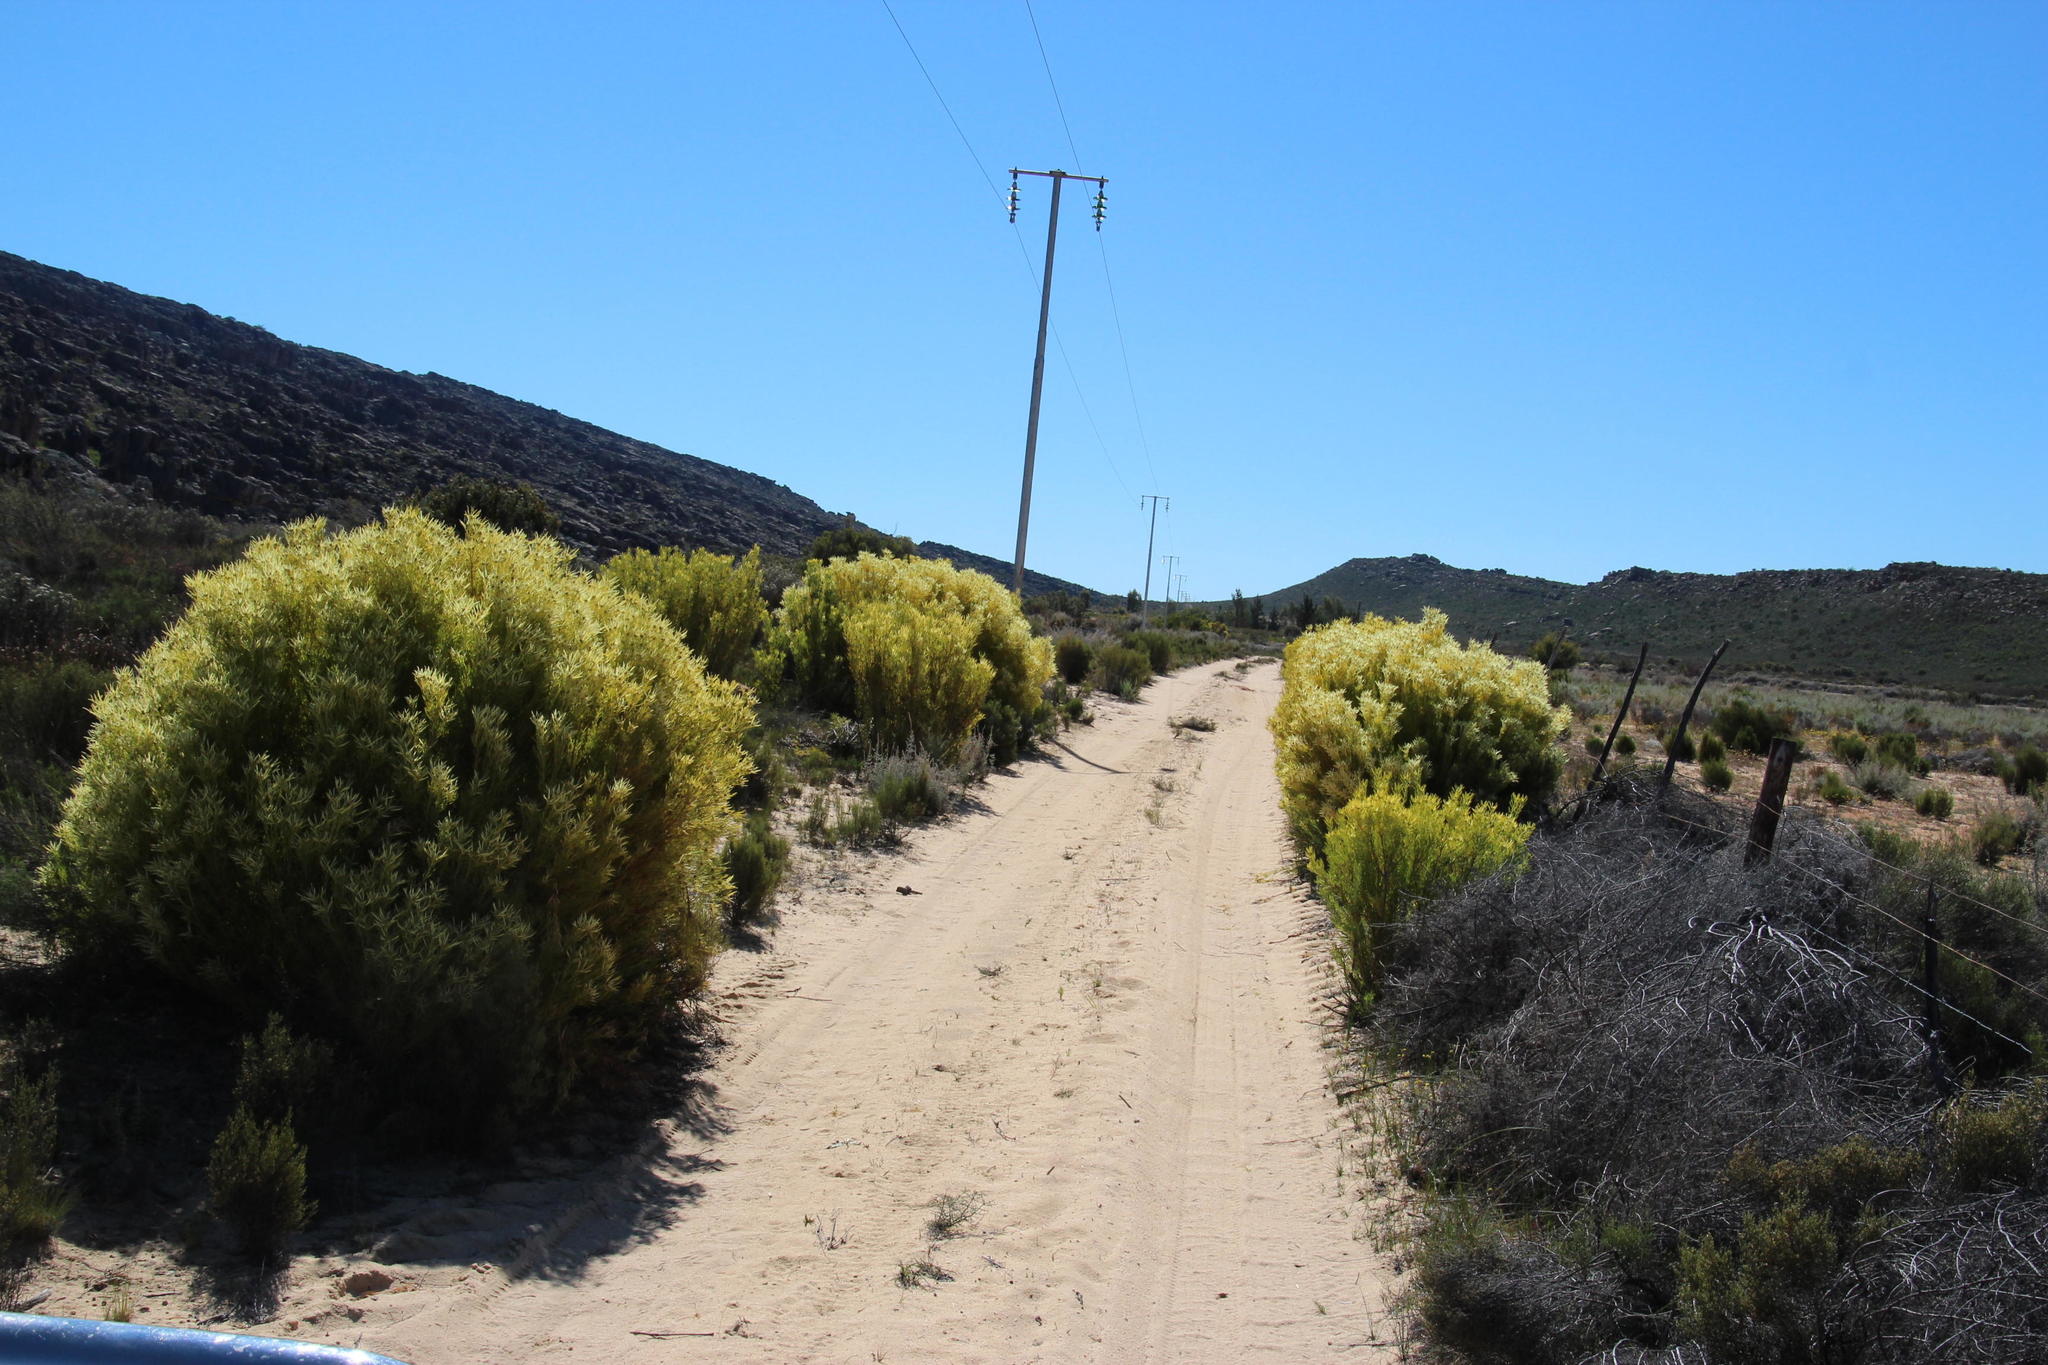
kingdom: Plantae
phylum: Tracheophyta
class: Magnoliopsida
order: Proteales
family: Proteaceae
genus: Leucadendron
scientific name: Leucadendron salignum
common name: Common sunshine conebush
